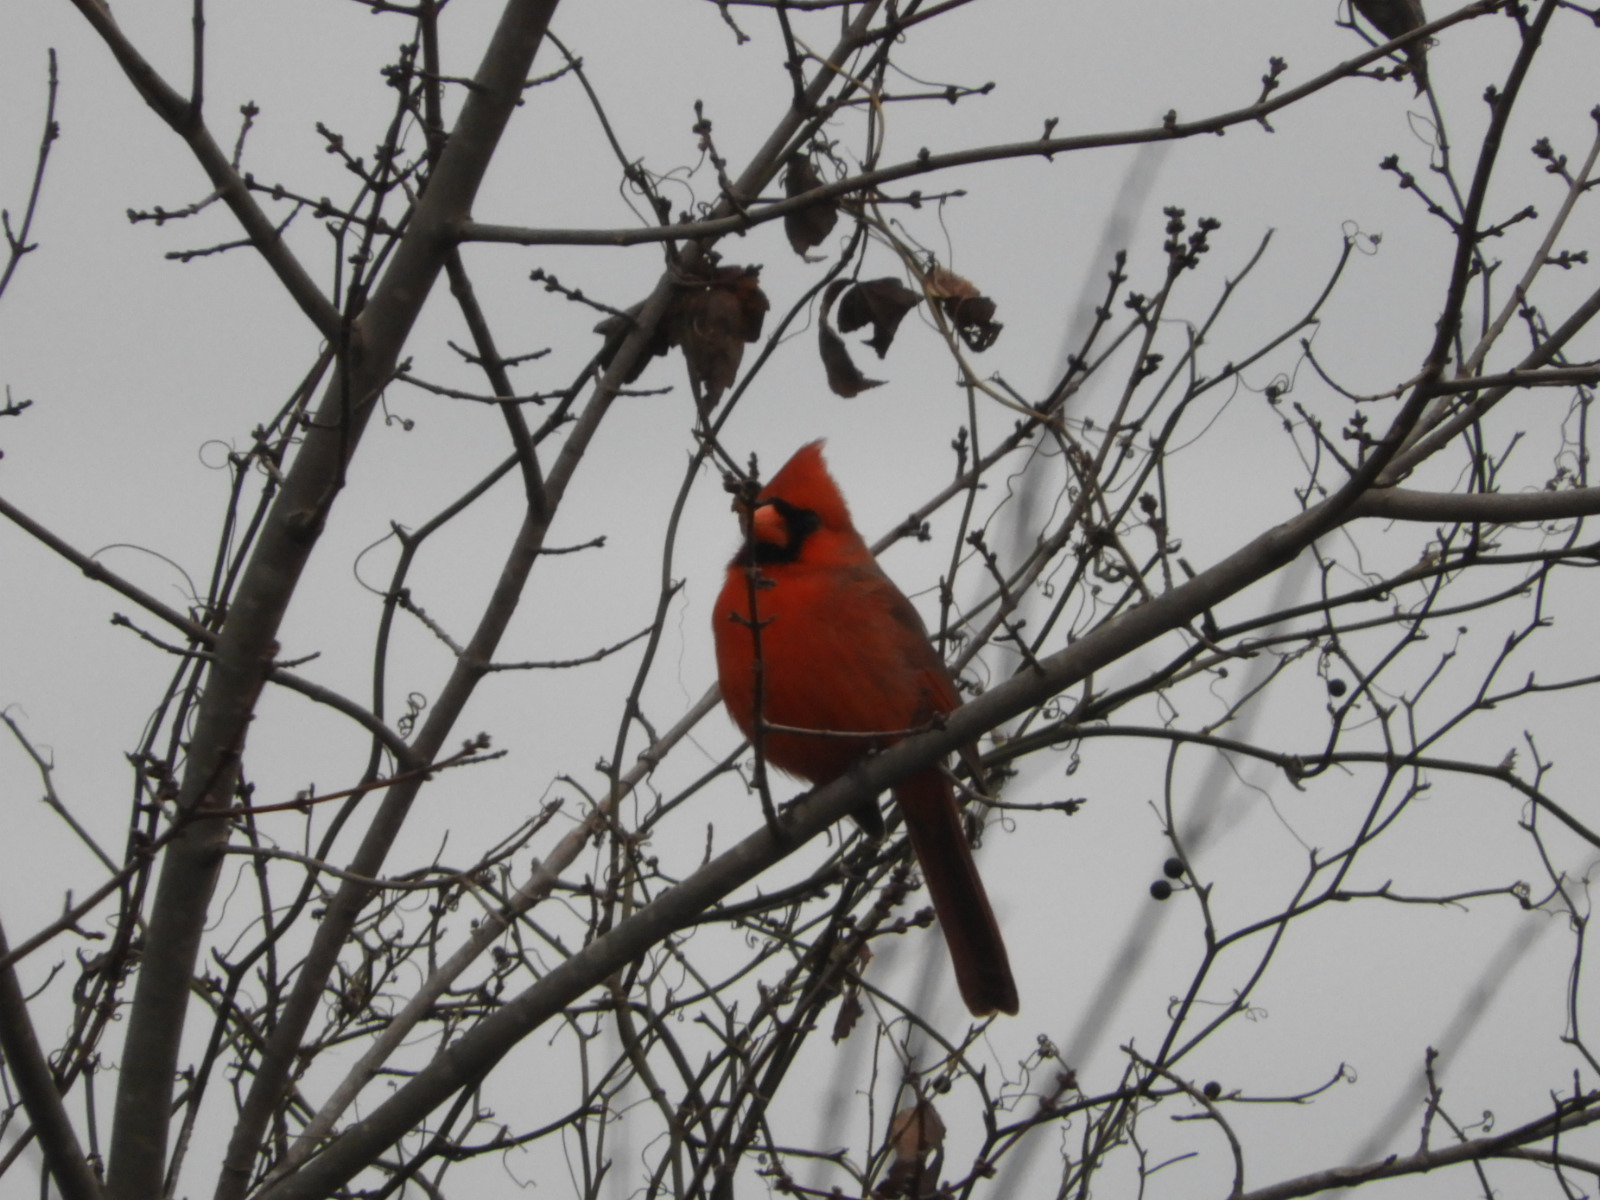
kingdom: Animalia
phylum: Chordata
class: Aves
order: Passeriformes
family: Cardinalidae
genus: Cardinalis
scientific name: Cardinalis cardinalis
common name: Northern cardinal
